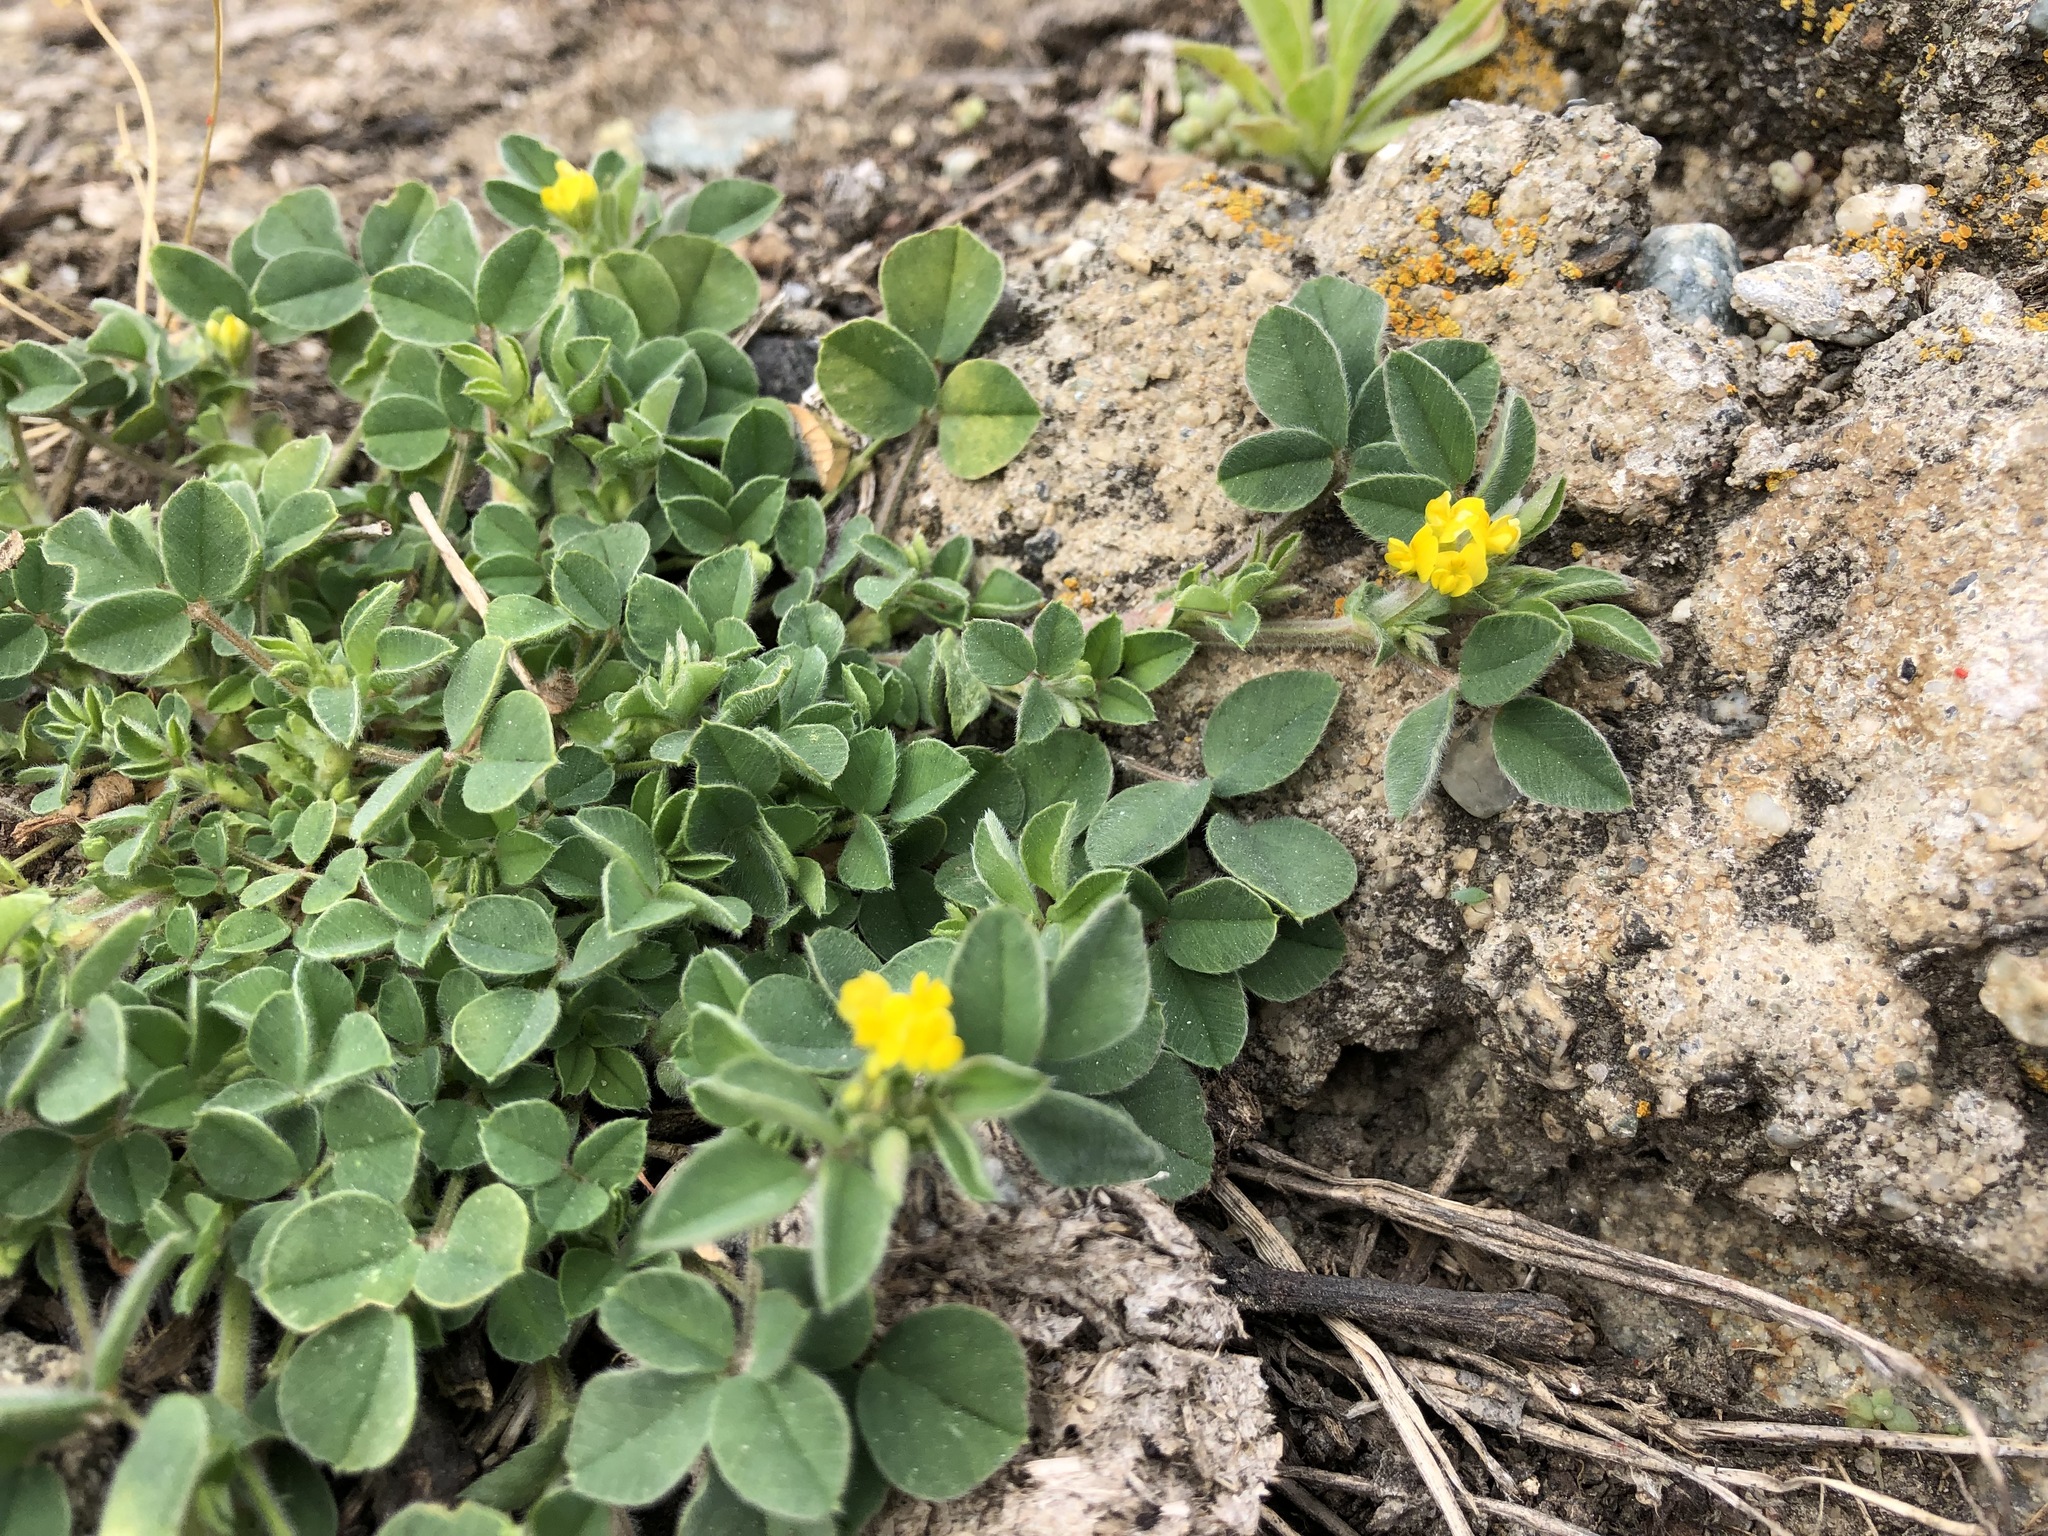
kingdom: Plantae
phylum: Tracheophyta
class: Magnoliopsida
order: Fabales
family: Fabaceae
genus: Medicago
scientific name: Medicago minima
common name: Little bur-clover
